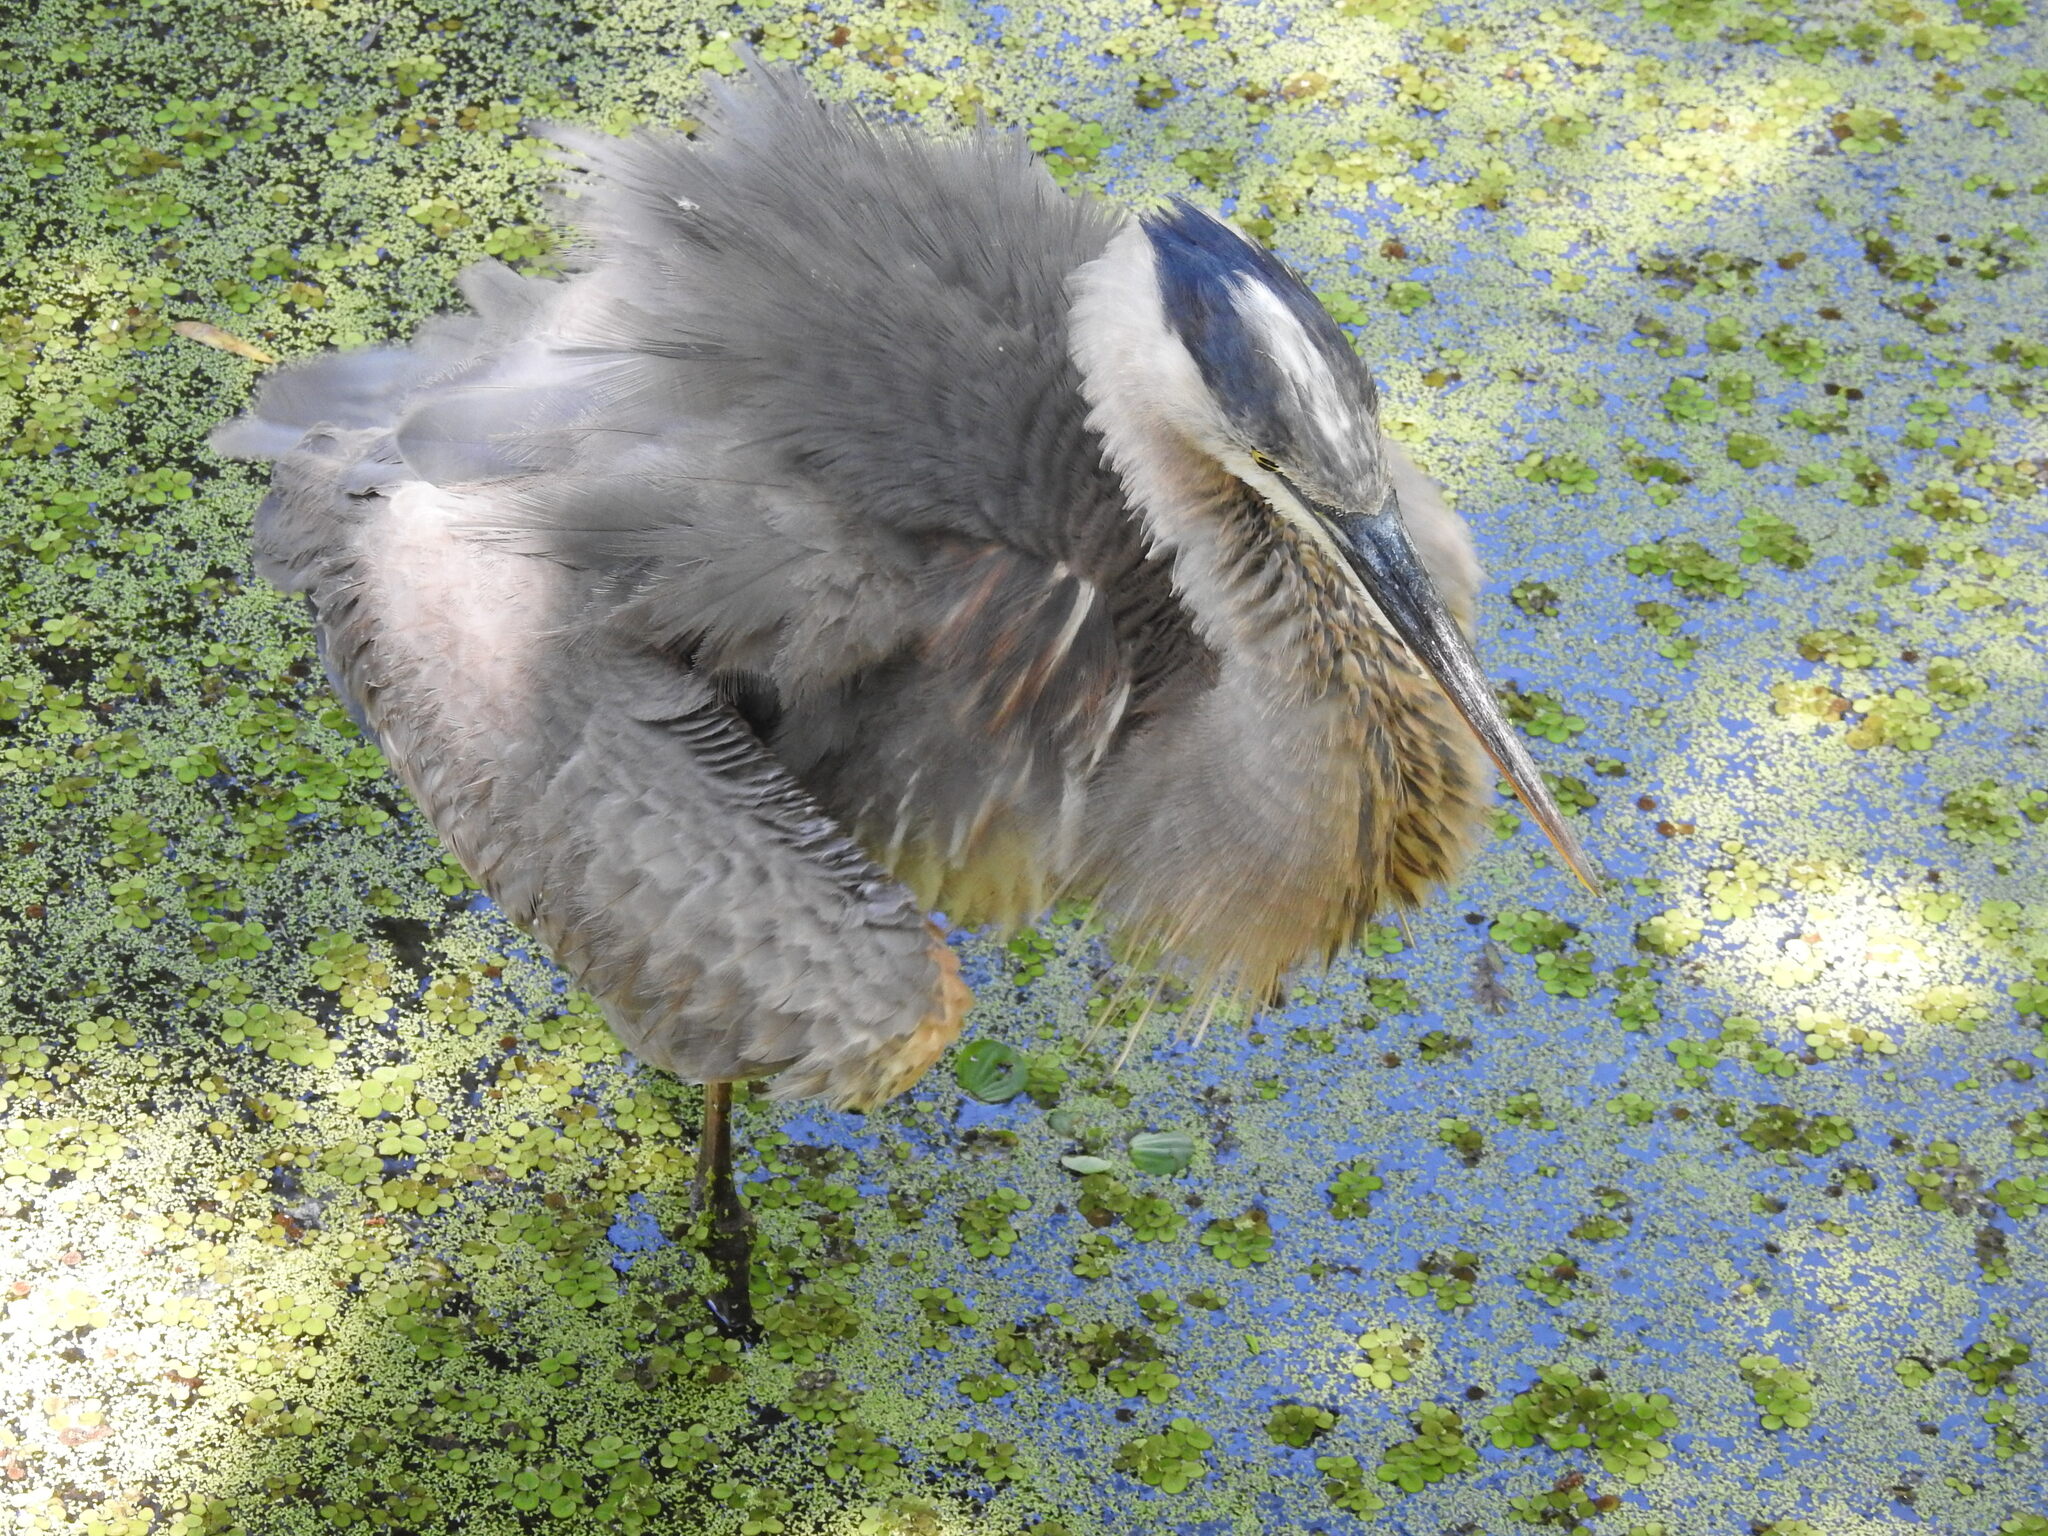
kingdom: Animalia
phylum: Chordata
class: Aves
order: Pelecaniformes
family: Ardeidae
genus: Ardea
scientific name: Ardea herodias
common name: Great blue heron
